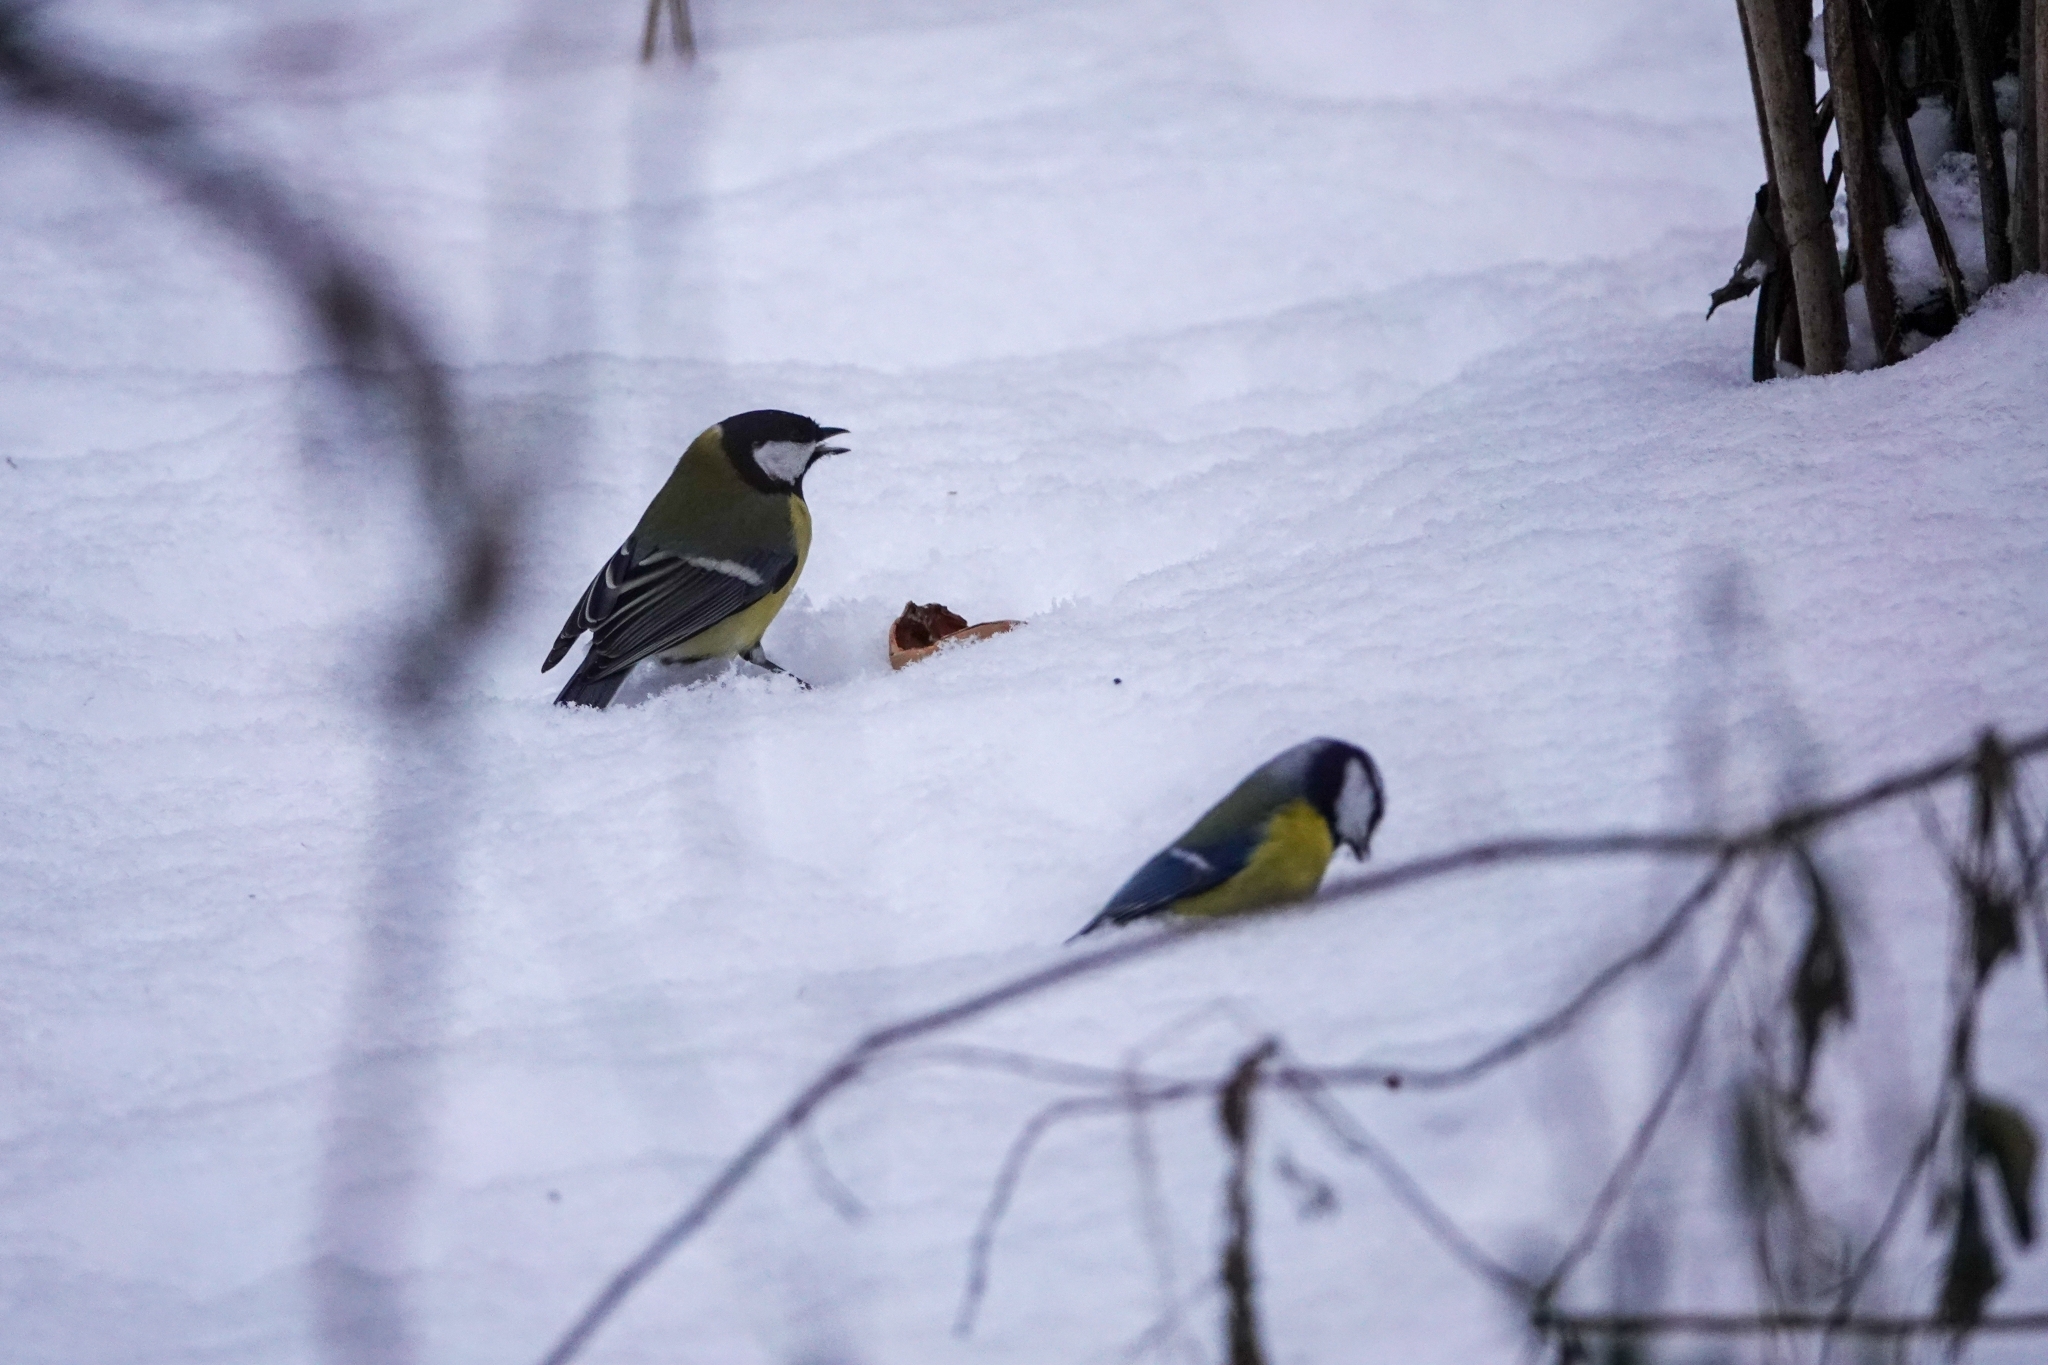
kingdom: Animalia
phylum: Chordata
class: Aves
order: Passeriformes
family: Paridae
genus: Cyanistes
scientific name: Cyanistes caeruleus
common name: Eurasian blue tit
